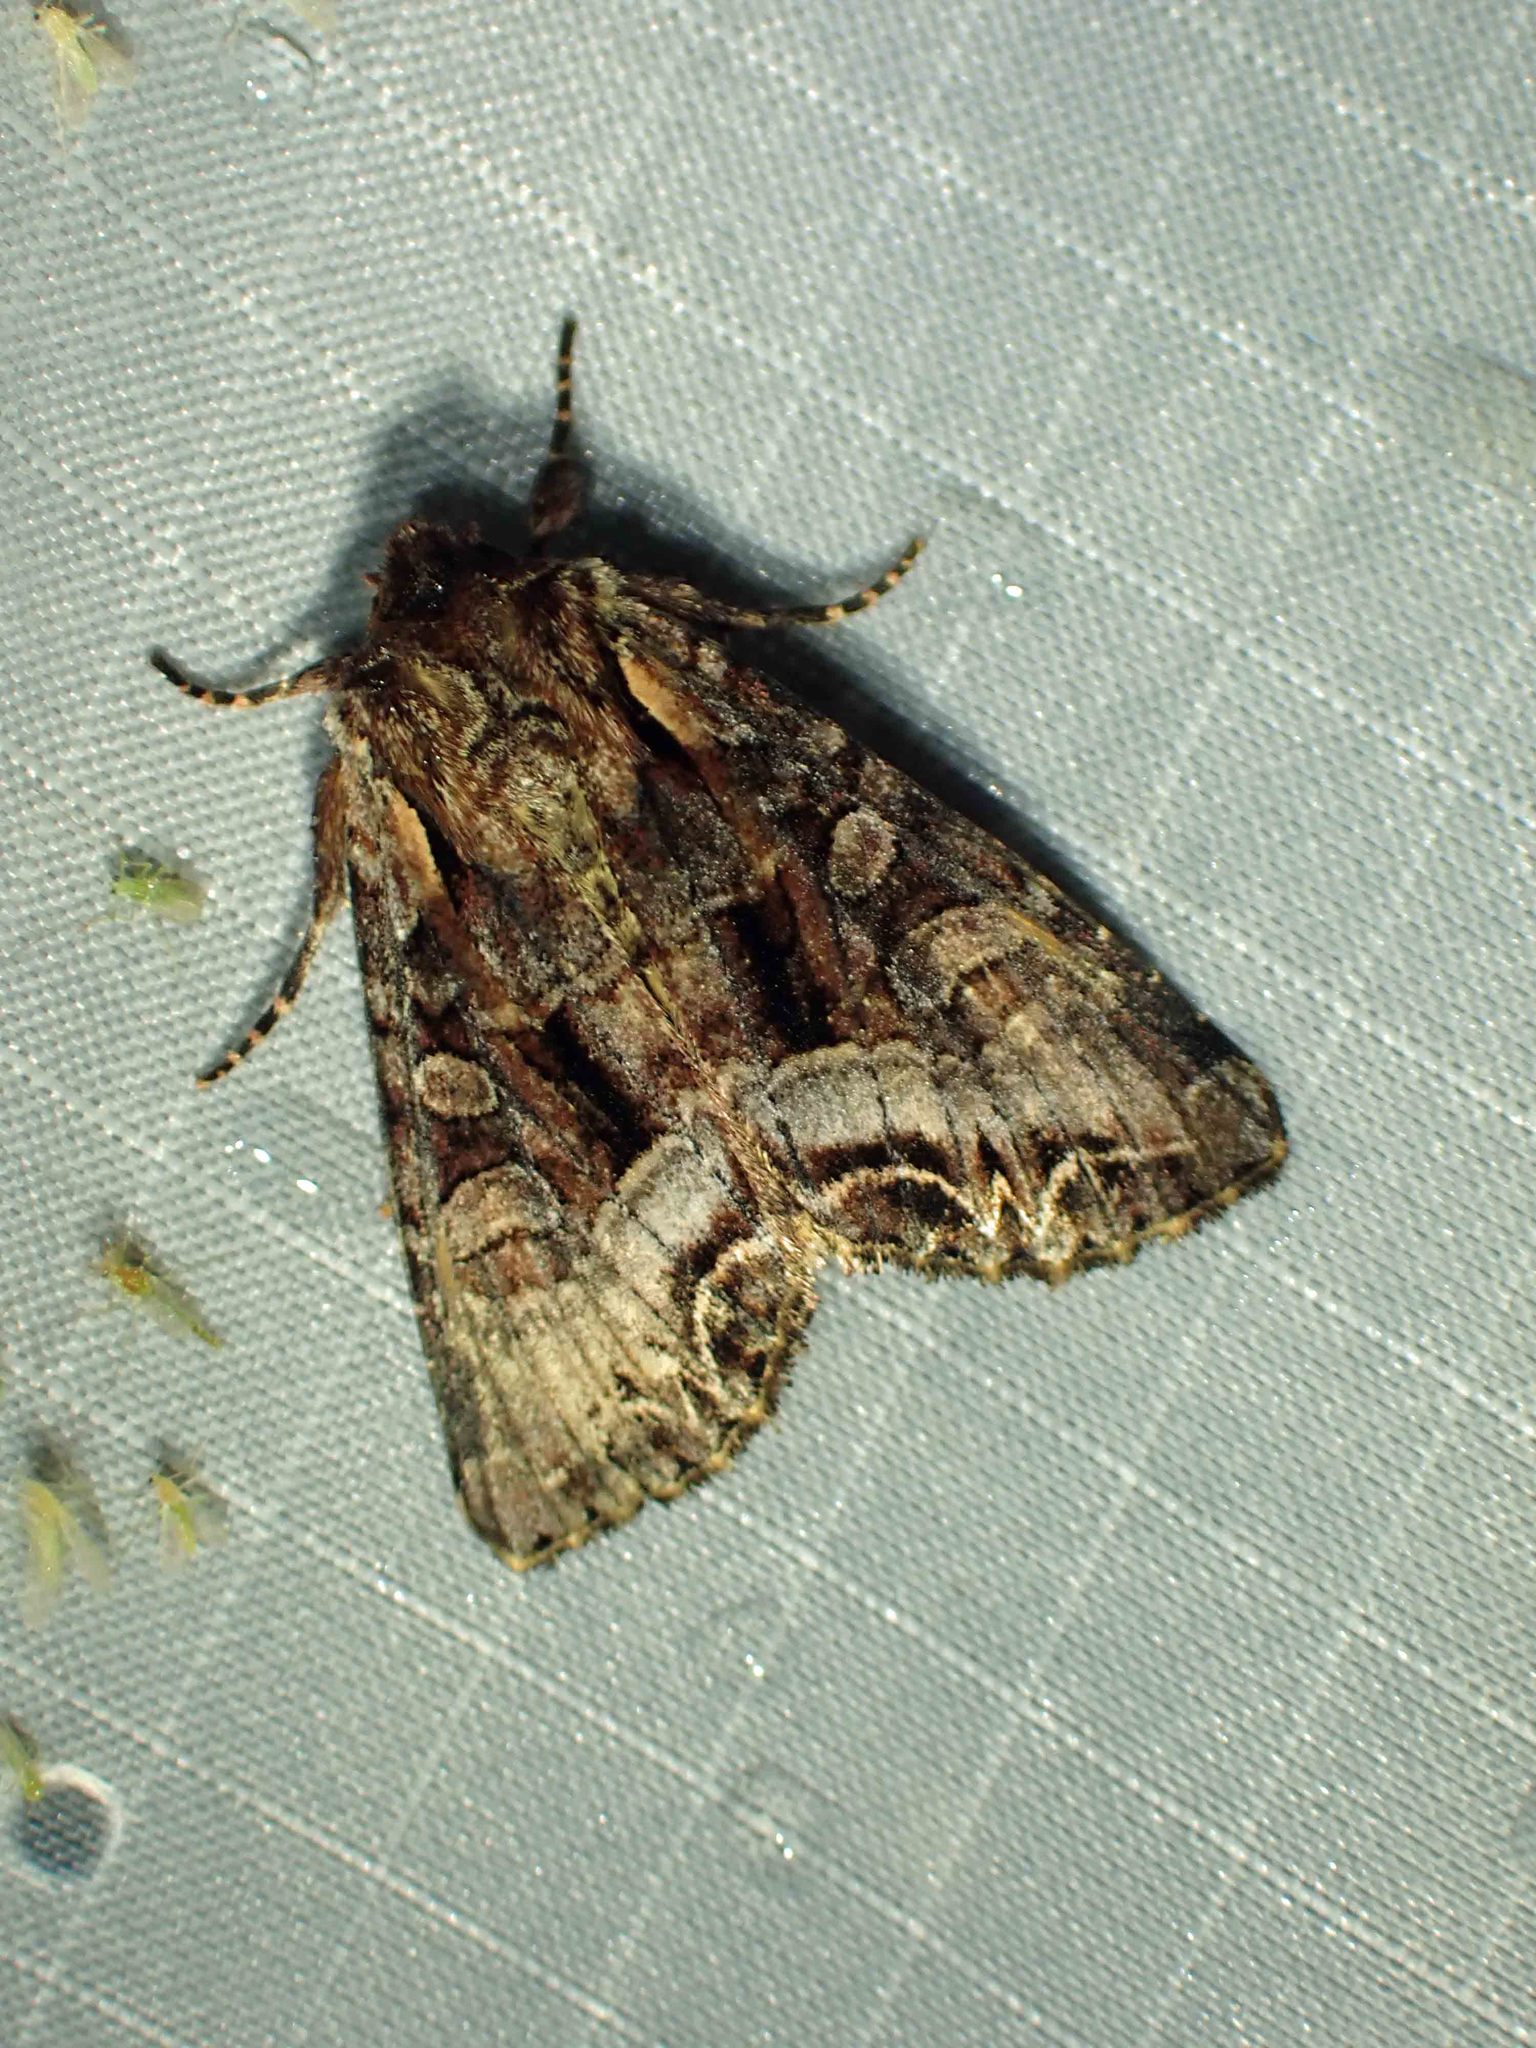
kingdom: Animalia
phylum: Arthropoda
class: Insecta
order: Lepidoptera
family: Noctuidae
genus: Lacanobia
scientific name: Lacanobia grandis
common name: Grand arches moth
